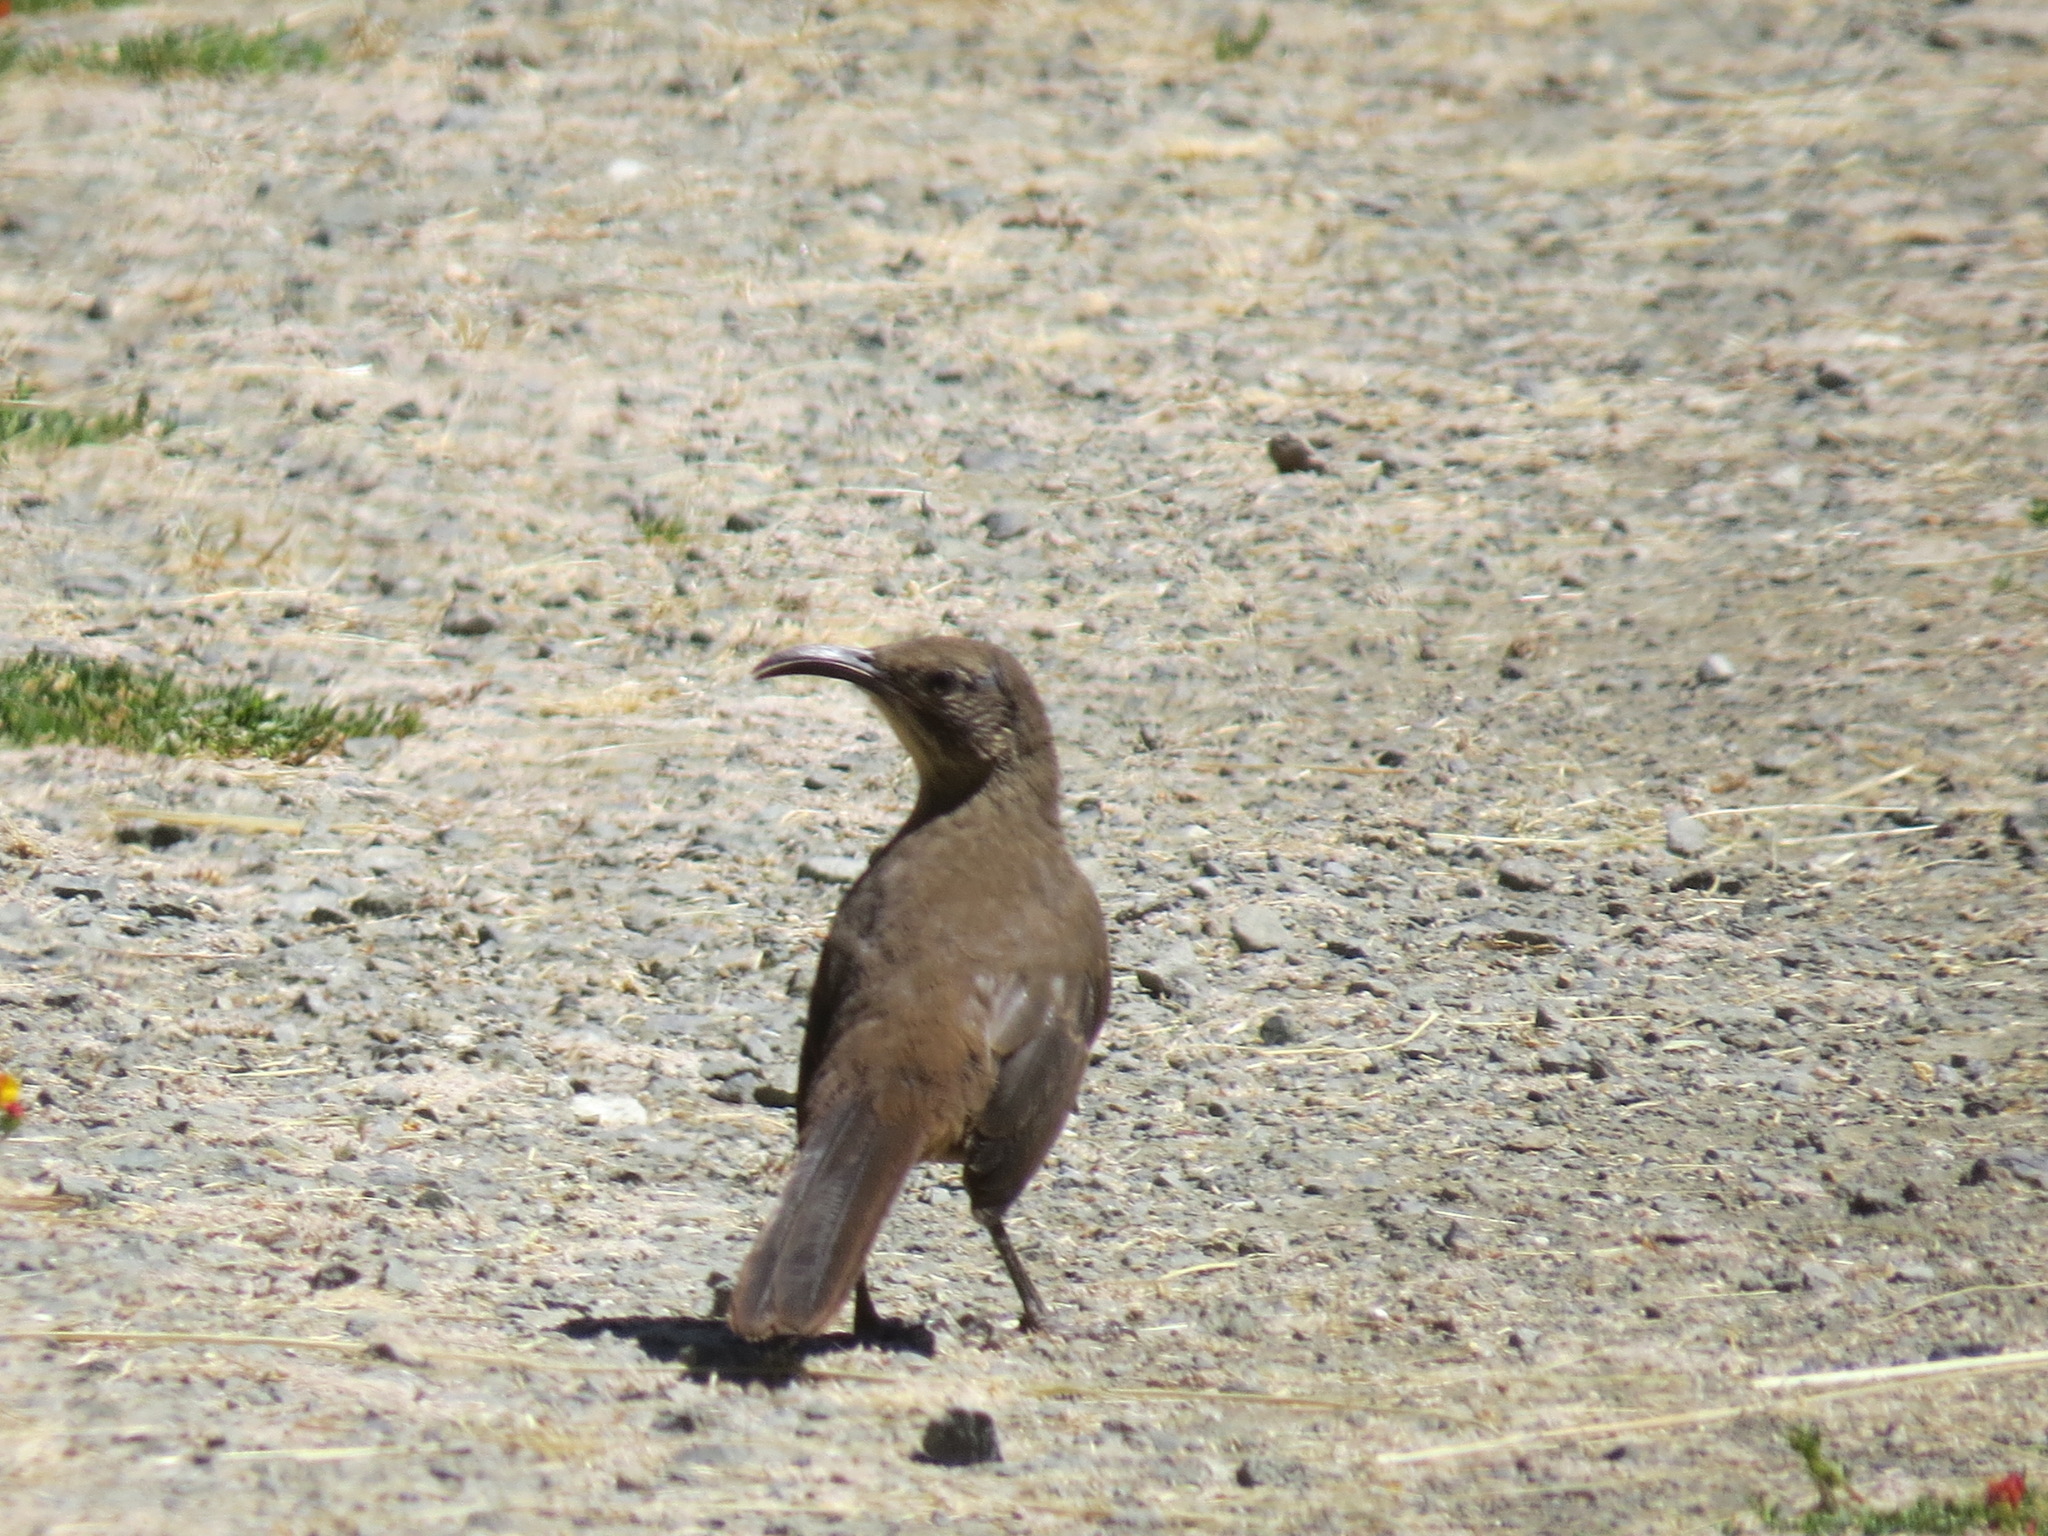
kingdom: Animalia
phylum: Chordata
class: Aves
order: Passeriformes
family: Mimidae
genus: Toxostoma
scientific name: Toxostoma redivivum
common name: California thrasher
